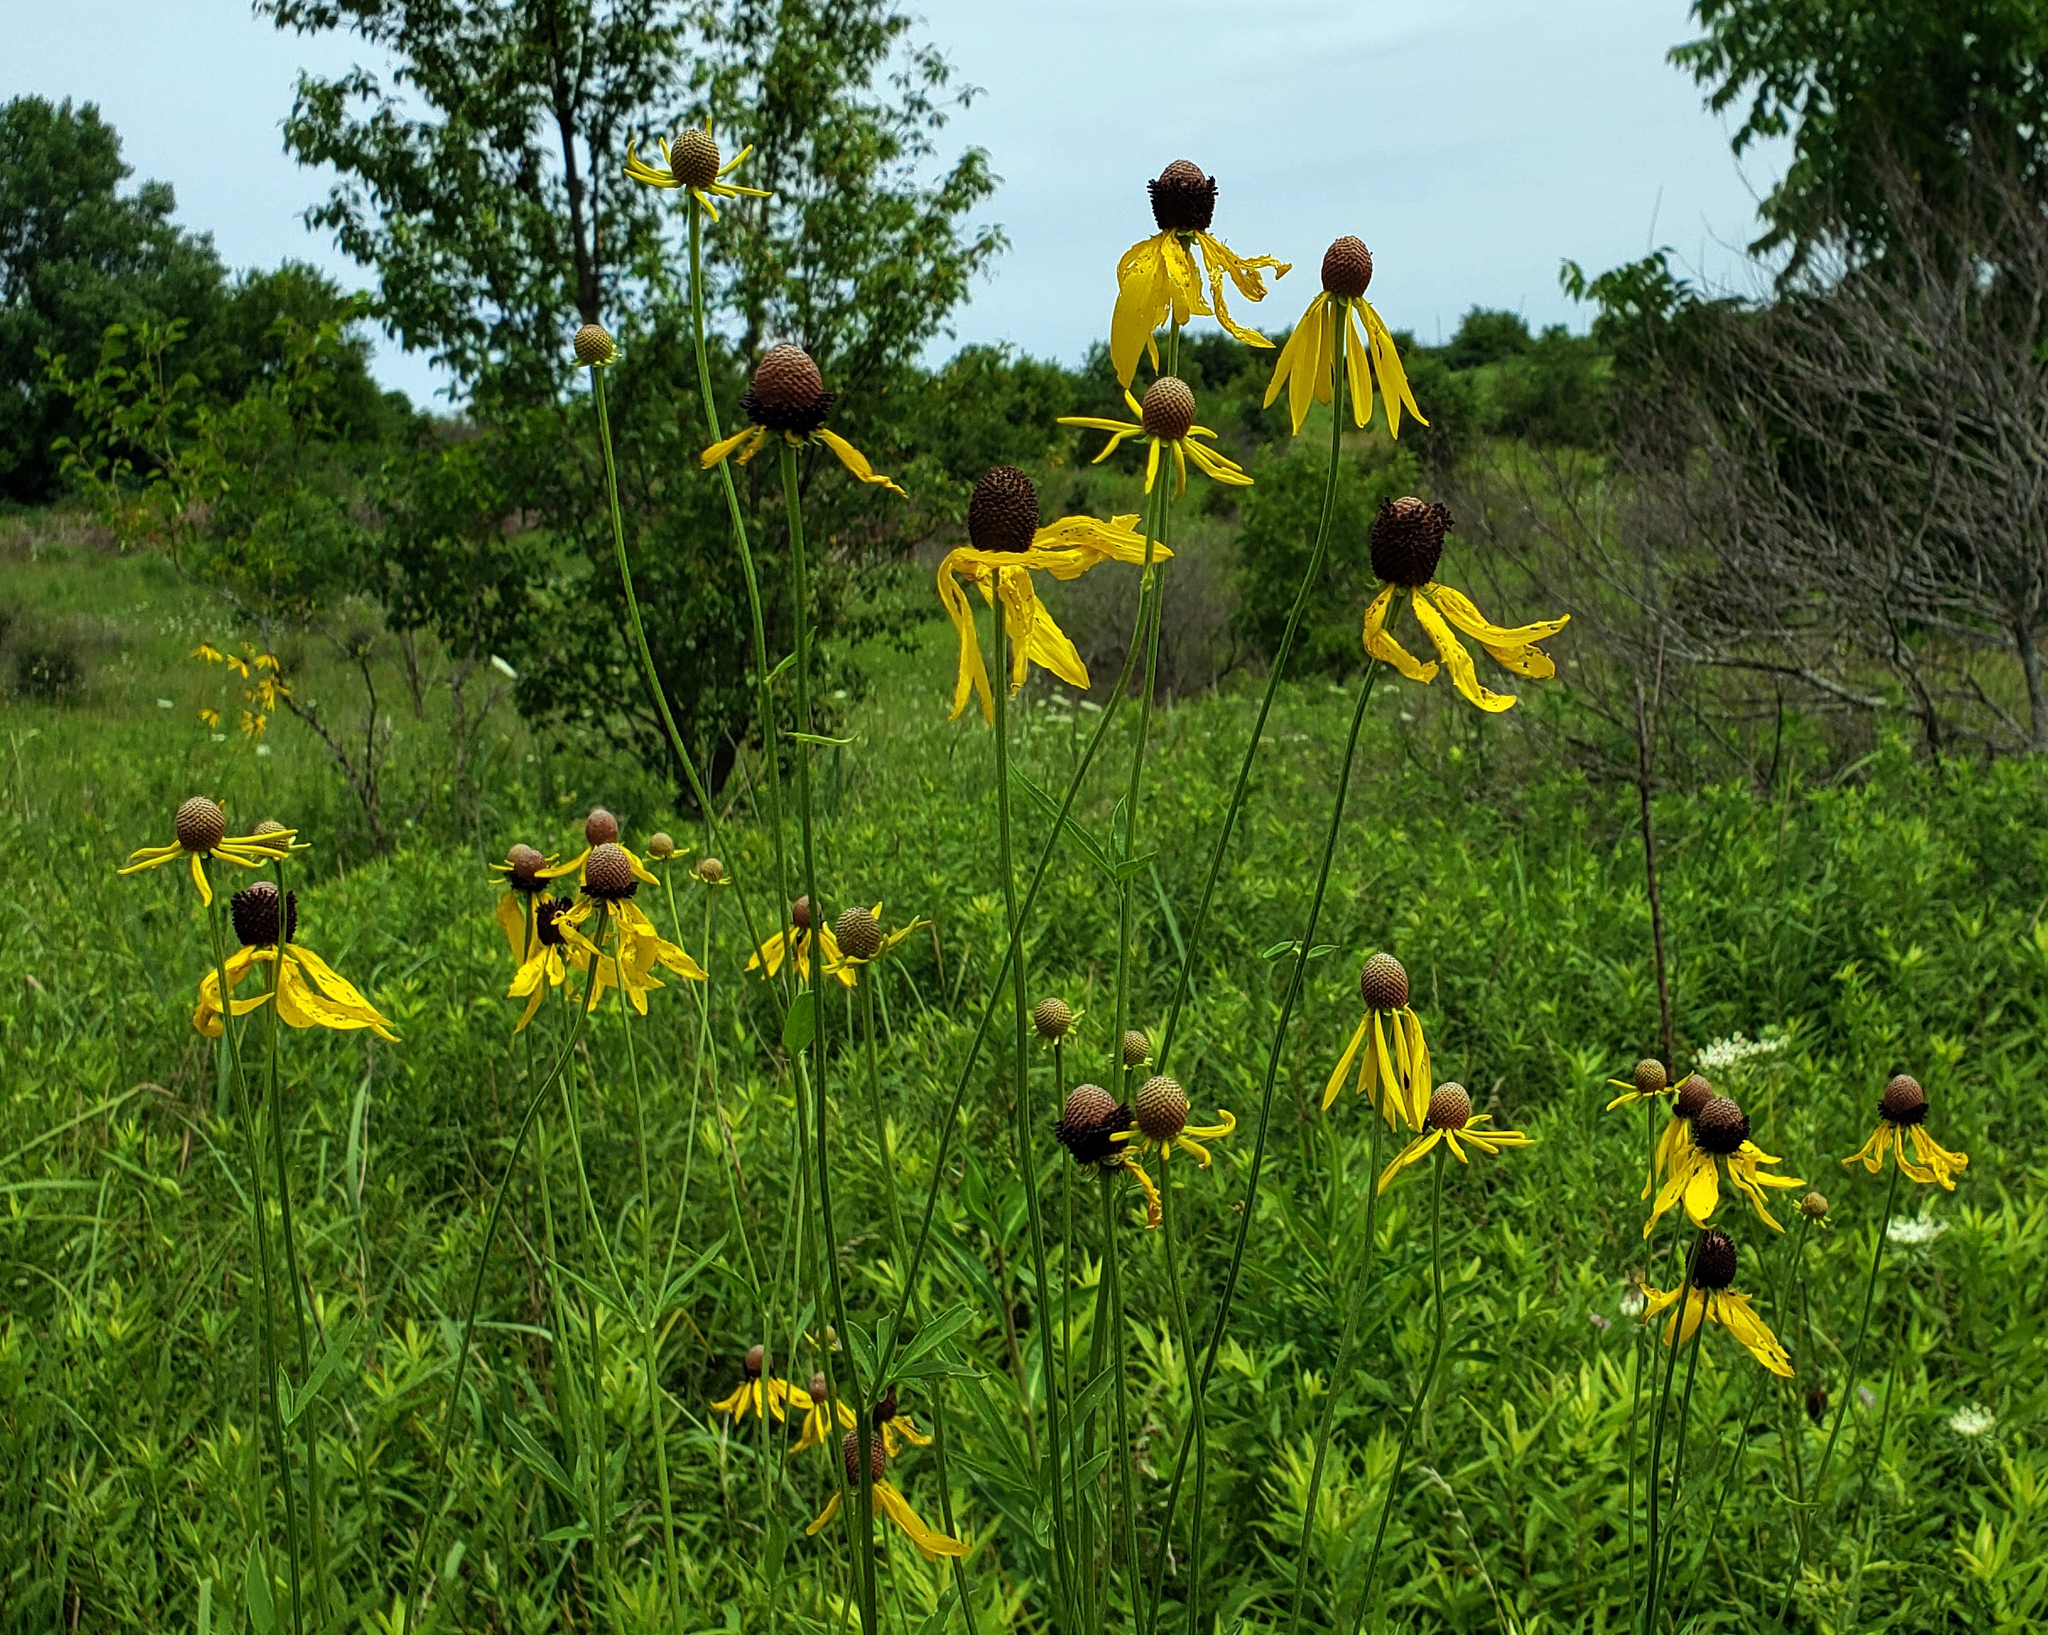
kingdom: Plantae
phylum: Tracheophyta
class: Magnoliopsida
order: Asterales
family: Asteraceae
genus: Ratibida
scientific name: Ratibida pinnata
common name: Drooping prairie-coneflower
